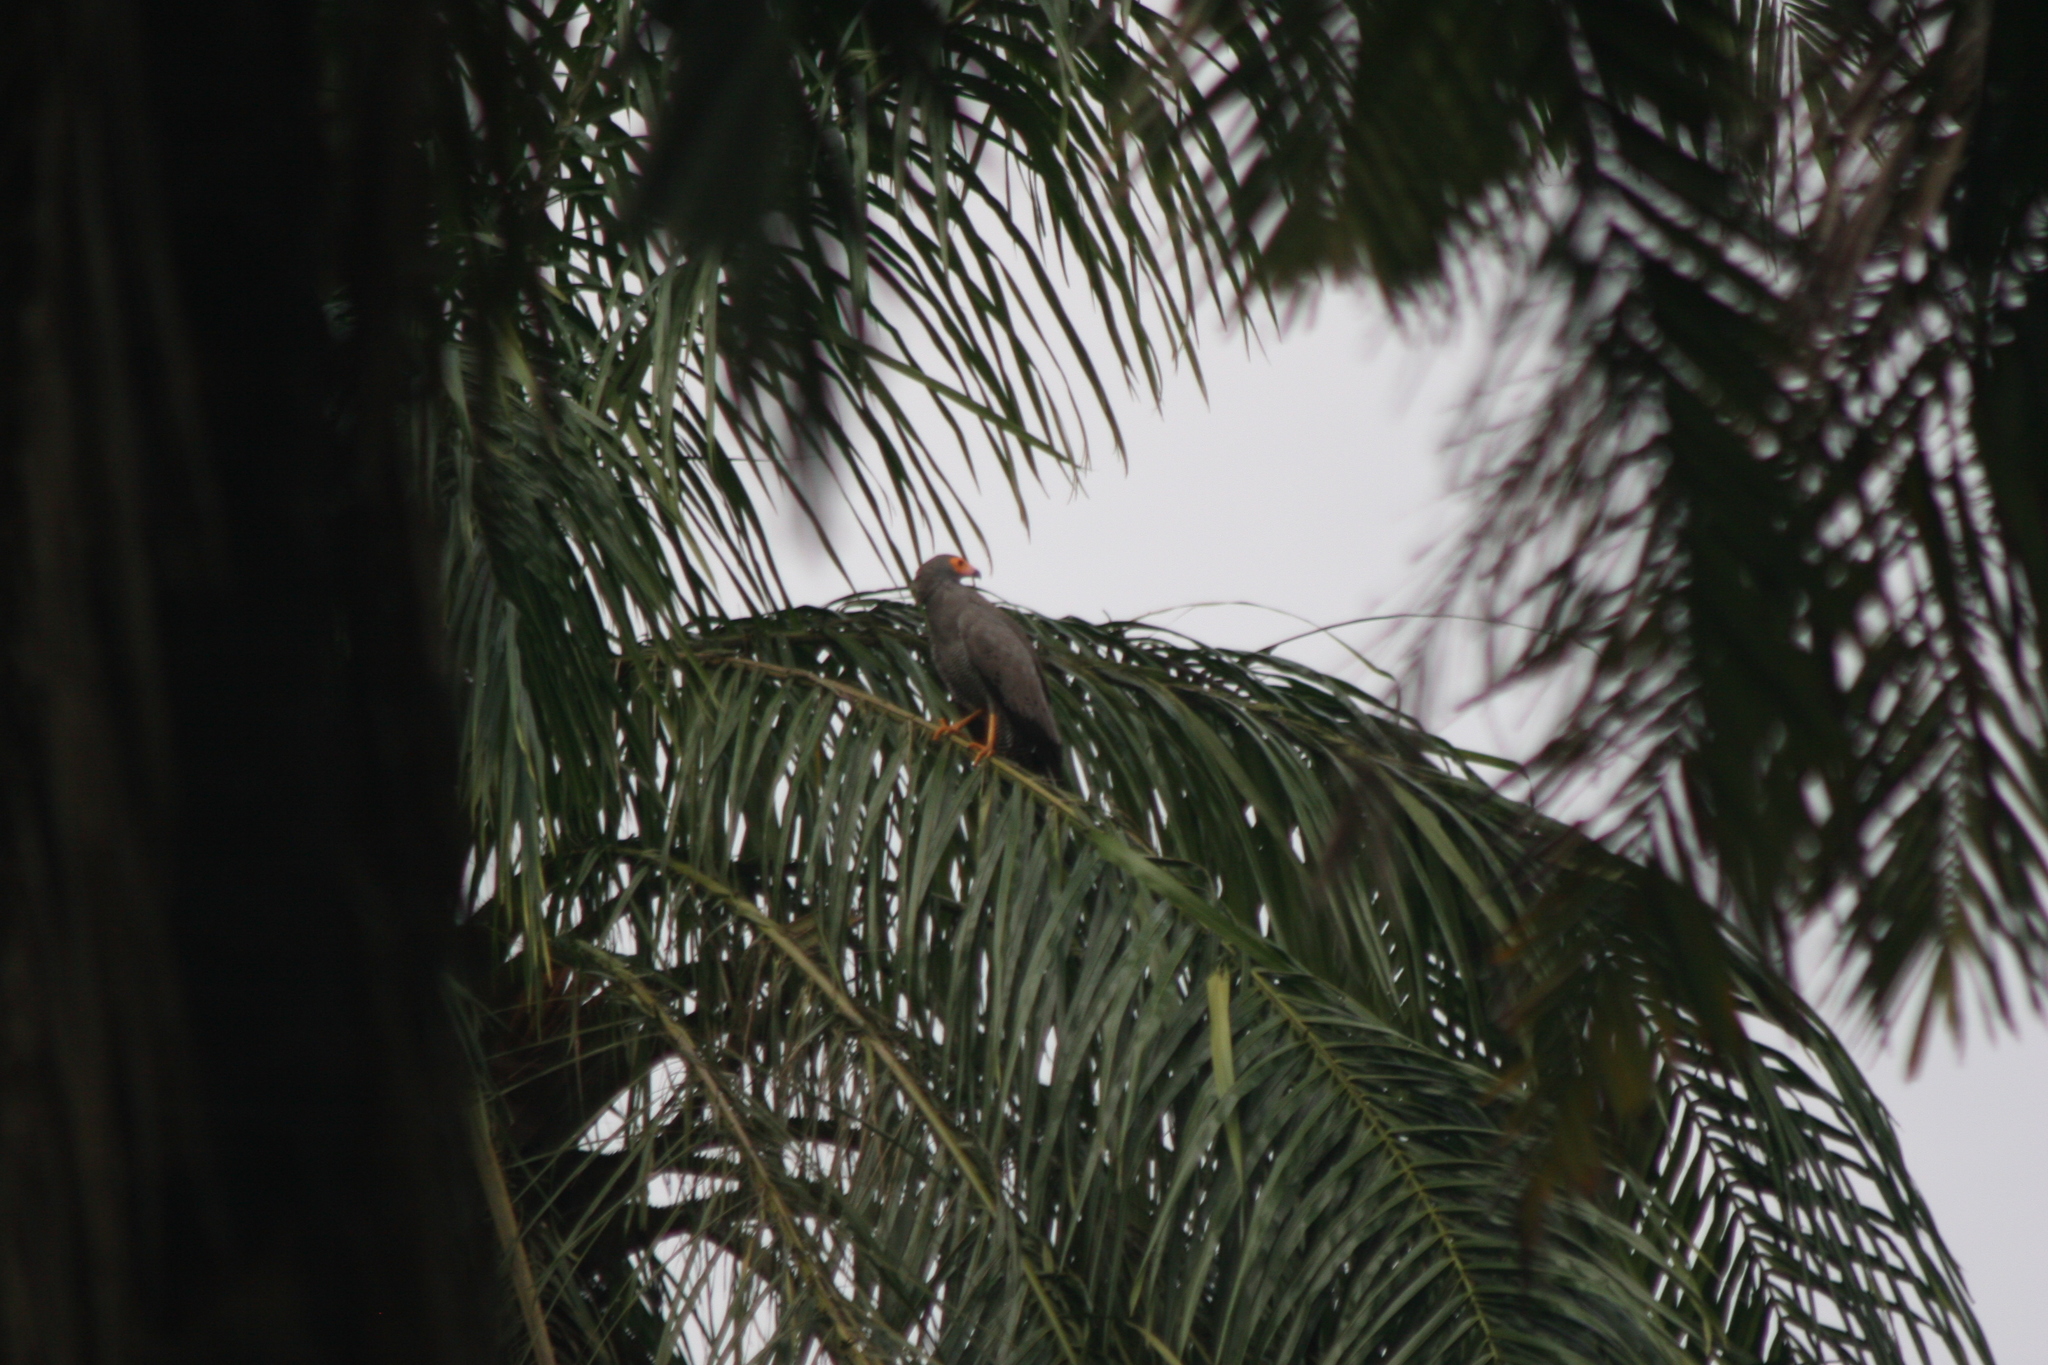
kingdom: Animalia
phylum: Chordata
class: Aves
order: Accipitriformes
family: Accipitridae
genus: Polyboroides
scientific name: Polyboroides typus
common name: African harrier-hawk
